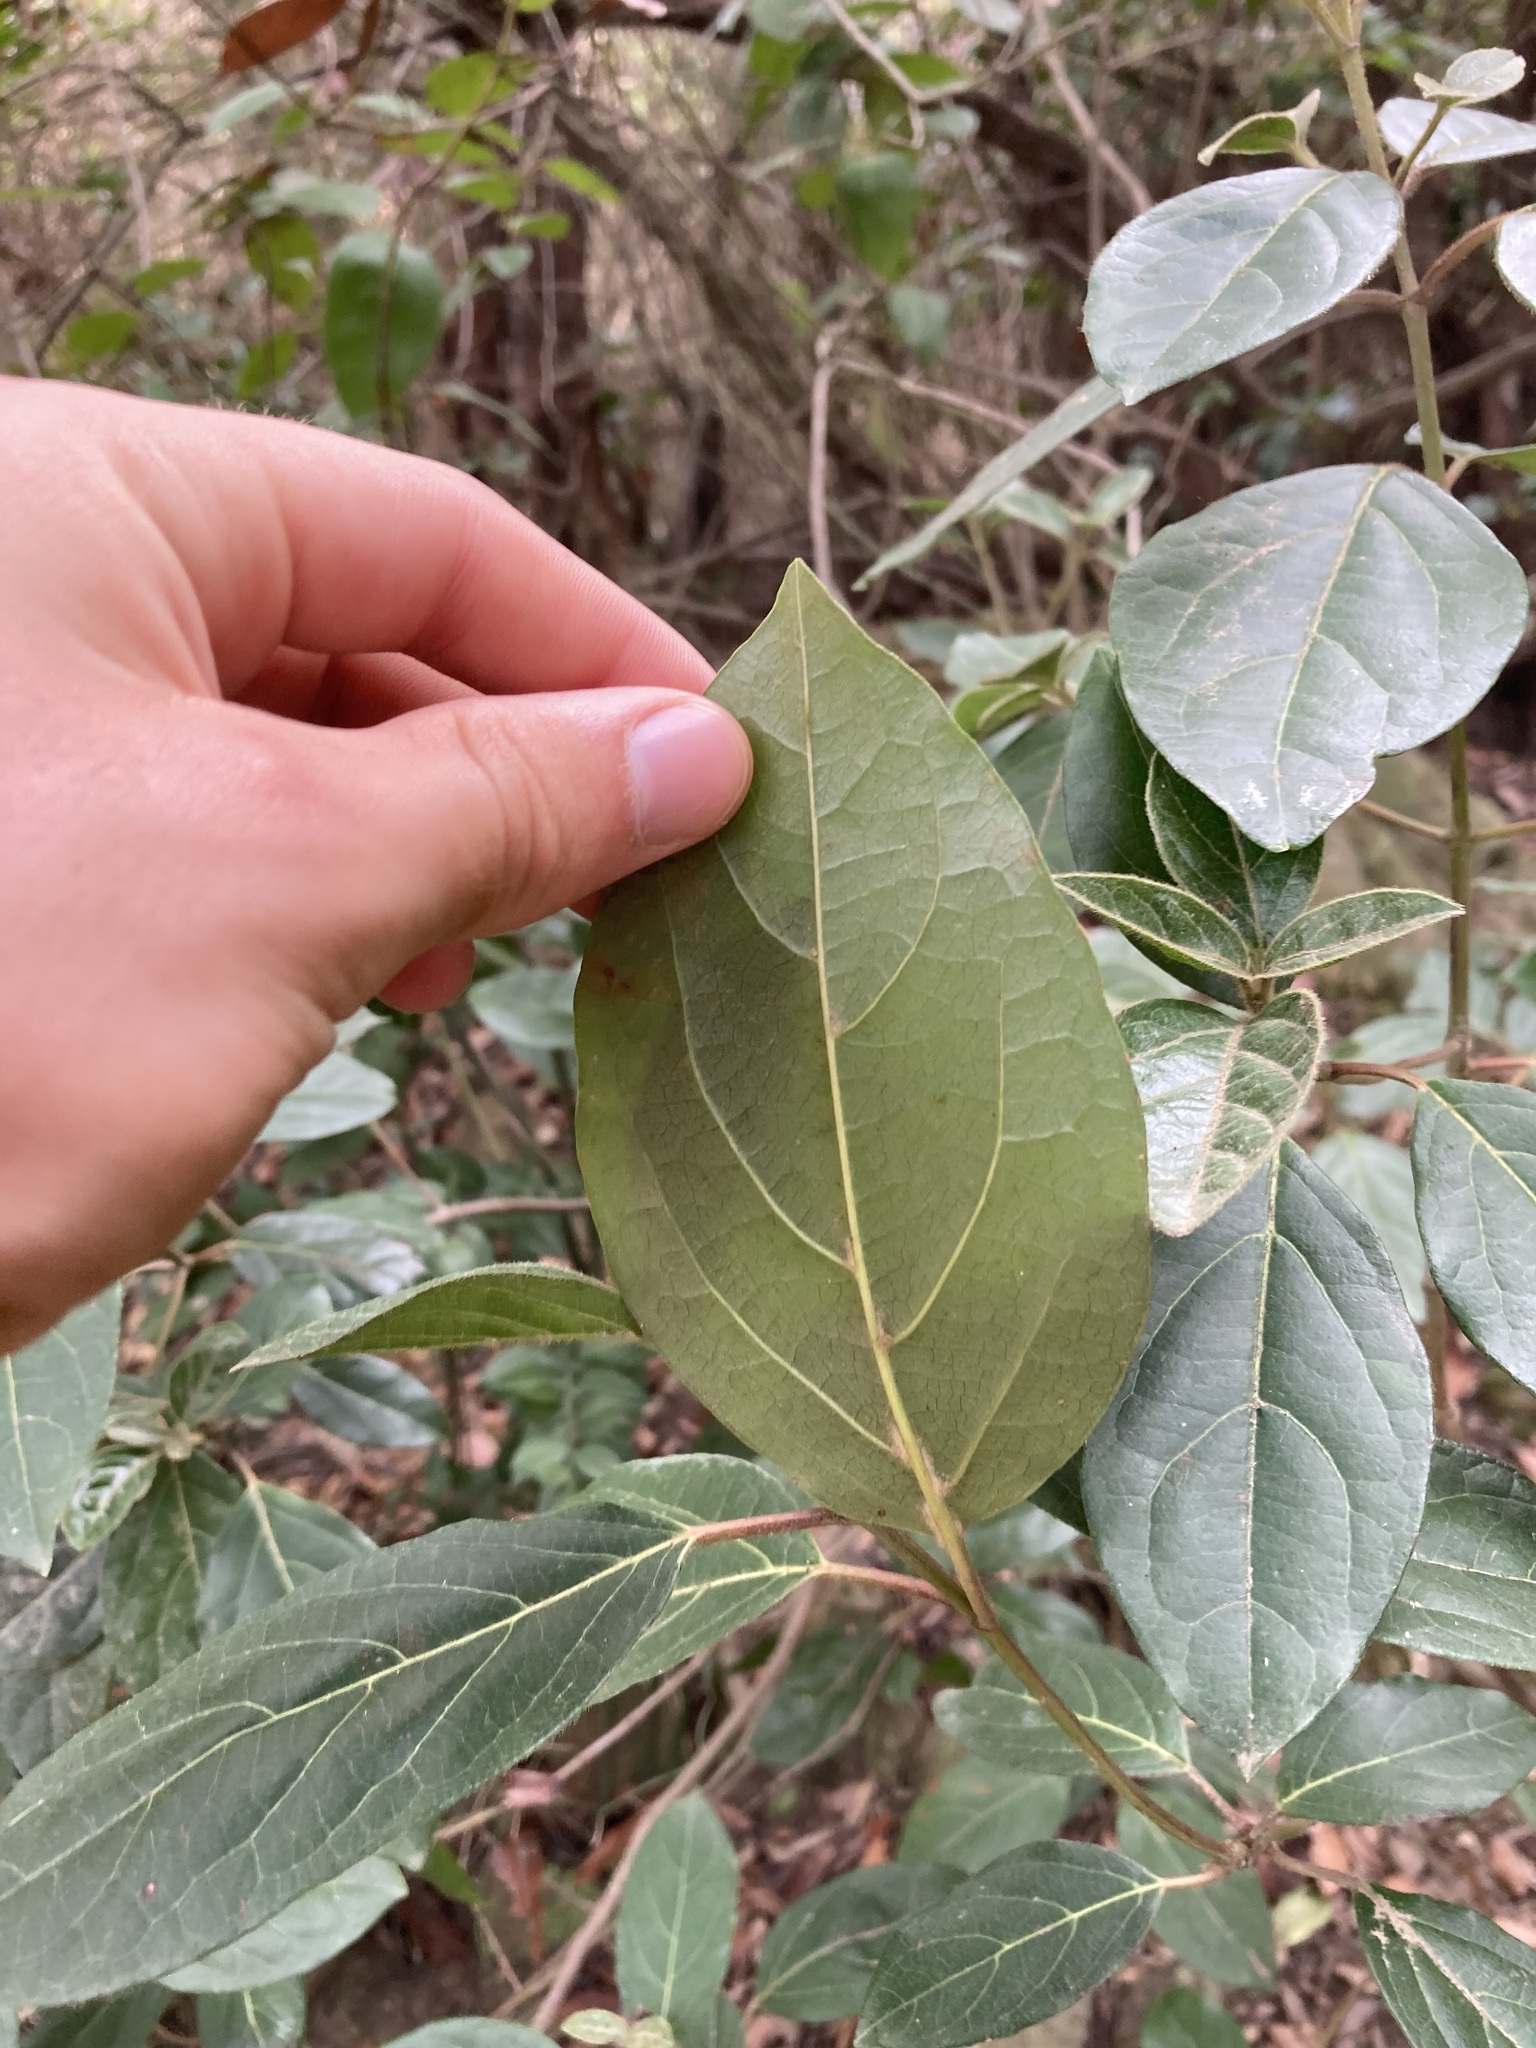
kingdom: Plantae
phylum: Tracheophyta
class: Magnoliopsida
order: Dipsacales
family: Viburnaceae
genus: Viburnum
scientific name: Viburnum tinus
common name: Laurustinus
